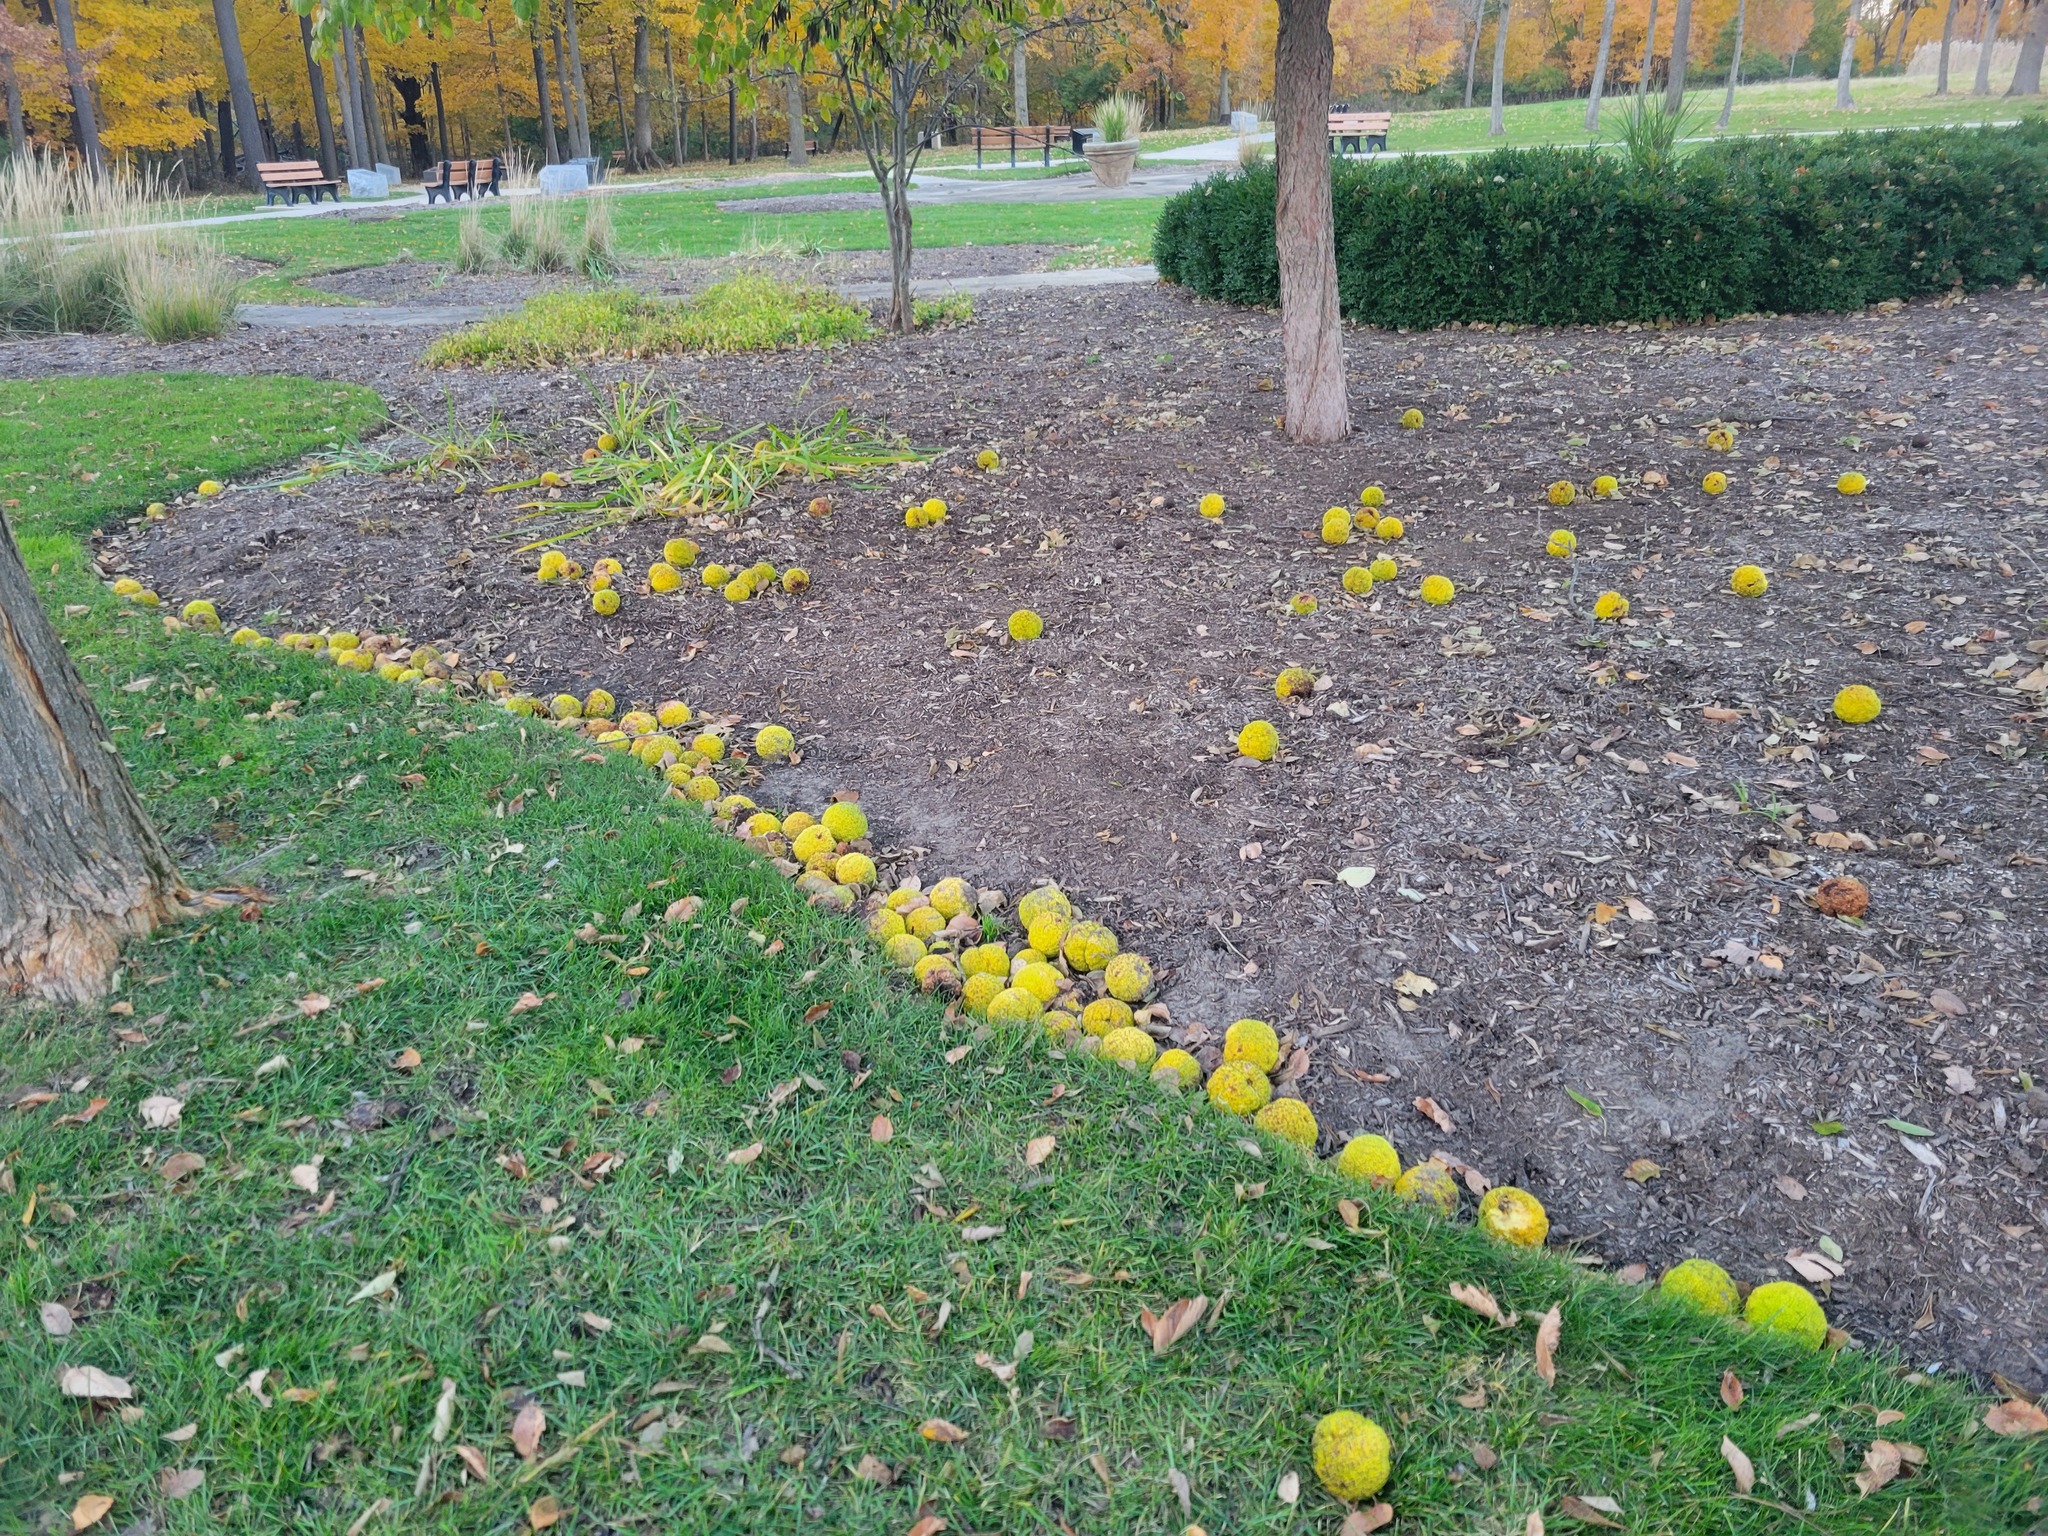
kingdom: Plantae
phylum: Tracheophyta
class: Magnoliopsida
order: Rosales
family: Moraceae
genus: Maclura
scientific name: Maclura pomifera
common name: Osage-orange
